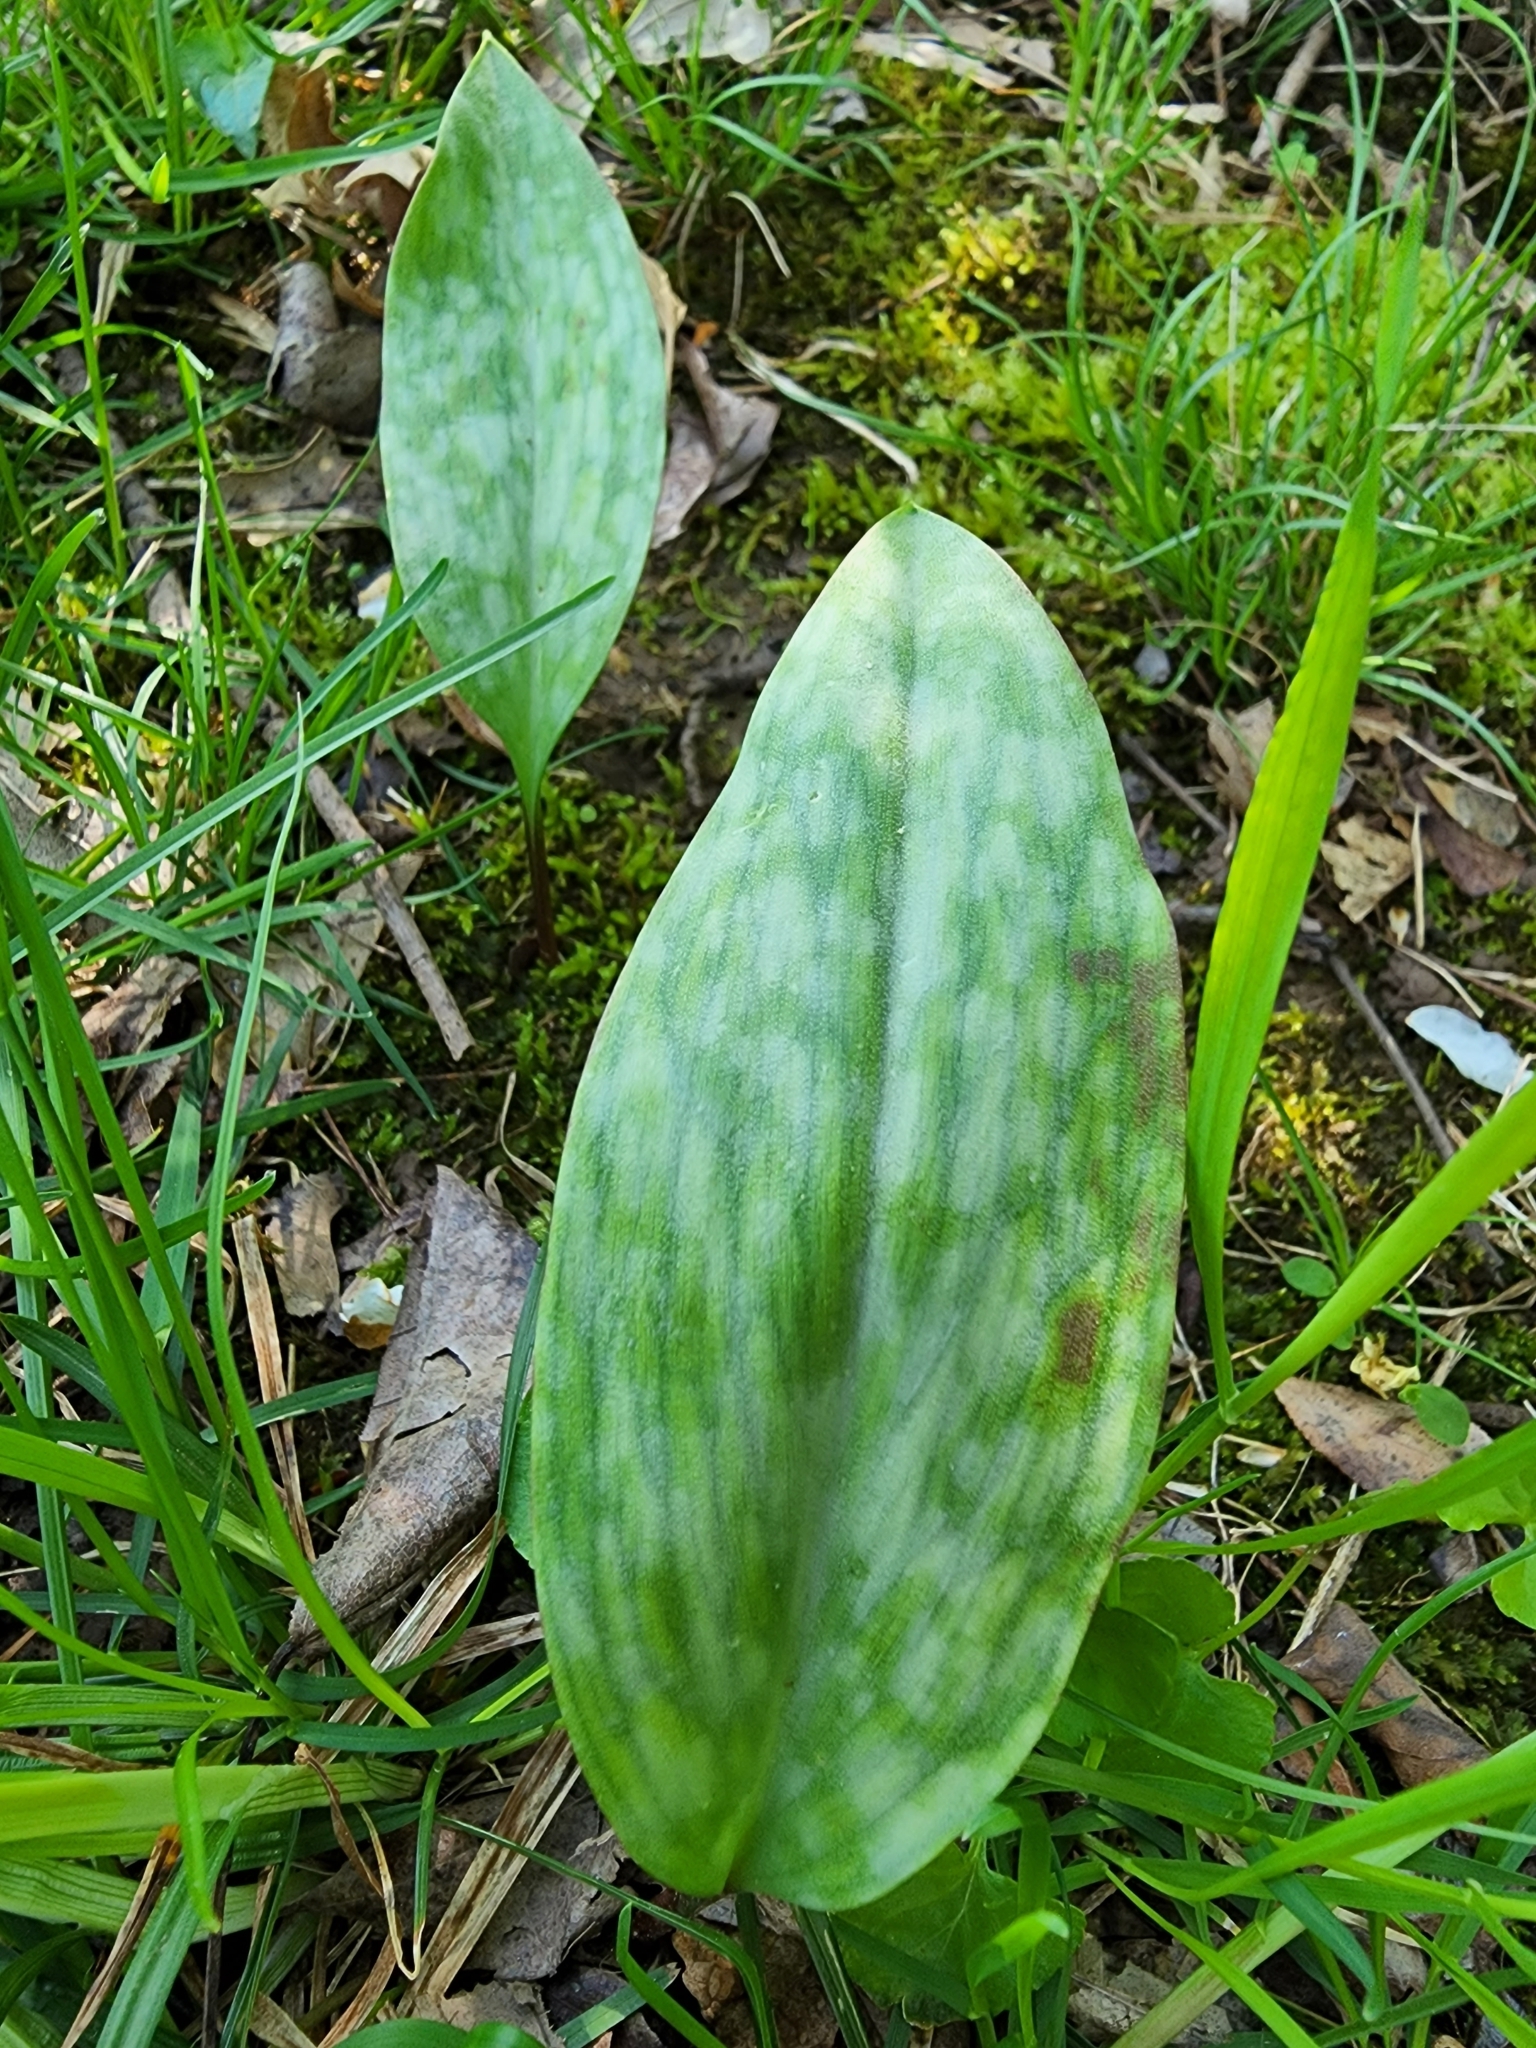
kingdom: Plantae
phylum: Tracheophyta
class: Liliopsida
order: Liliales
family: Liliaceae
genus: Erythronium
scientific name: Erythronium americanum
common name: Yellow adder's-tongue
